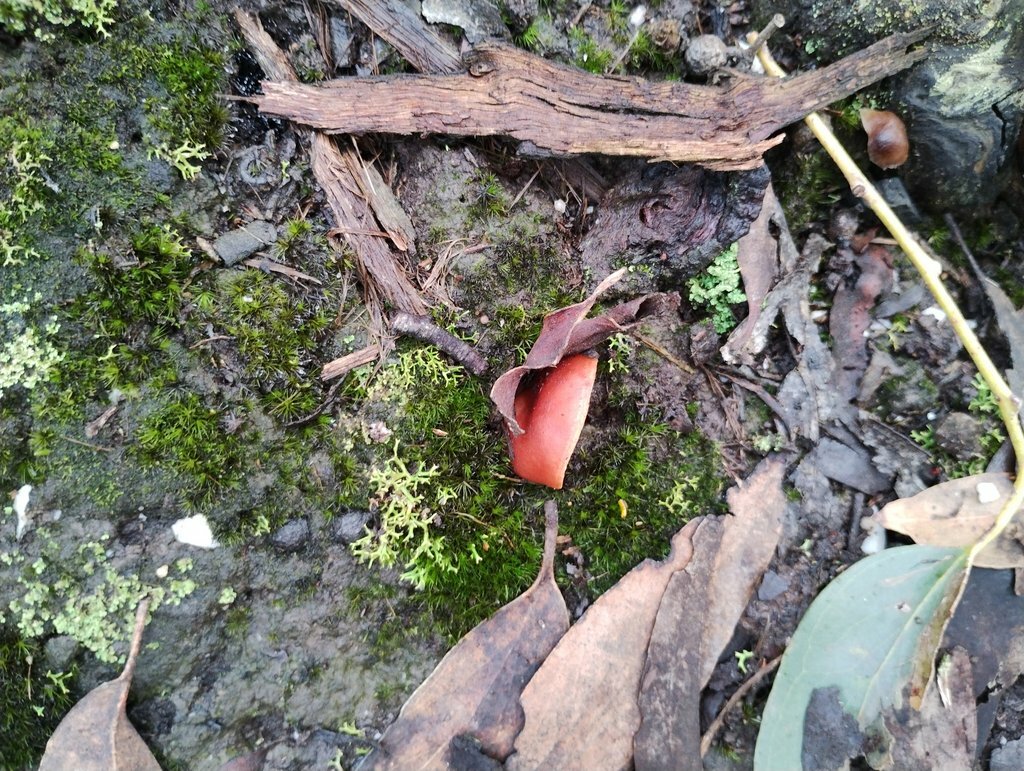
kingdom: Fungi
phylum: Basidiomycota
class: Agaricomycetes
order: Russulales
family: Russulaceae
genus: Lactarius
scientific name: Lactarius eucalypti
